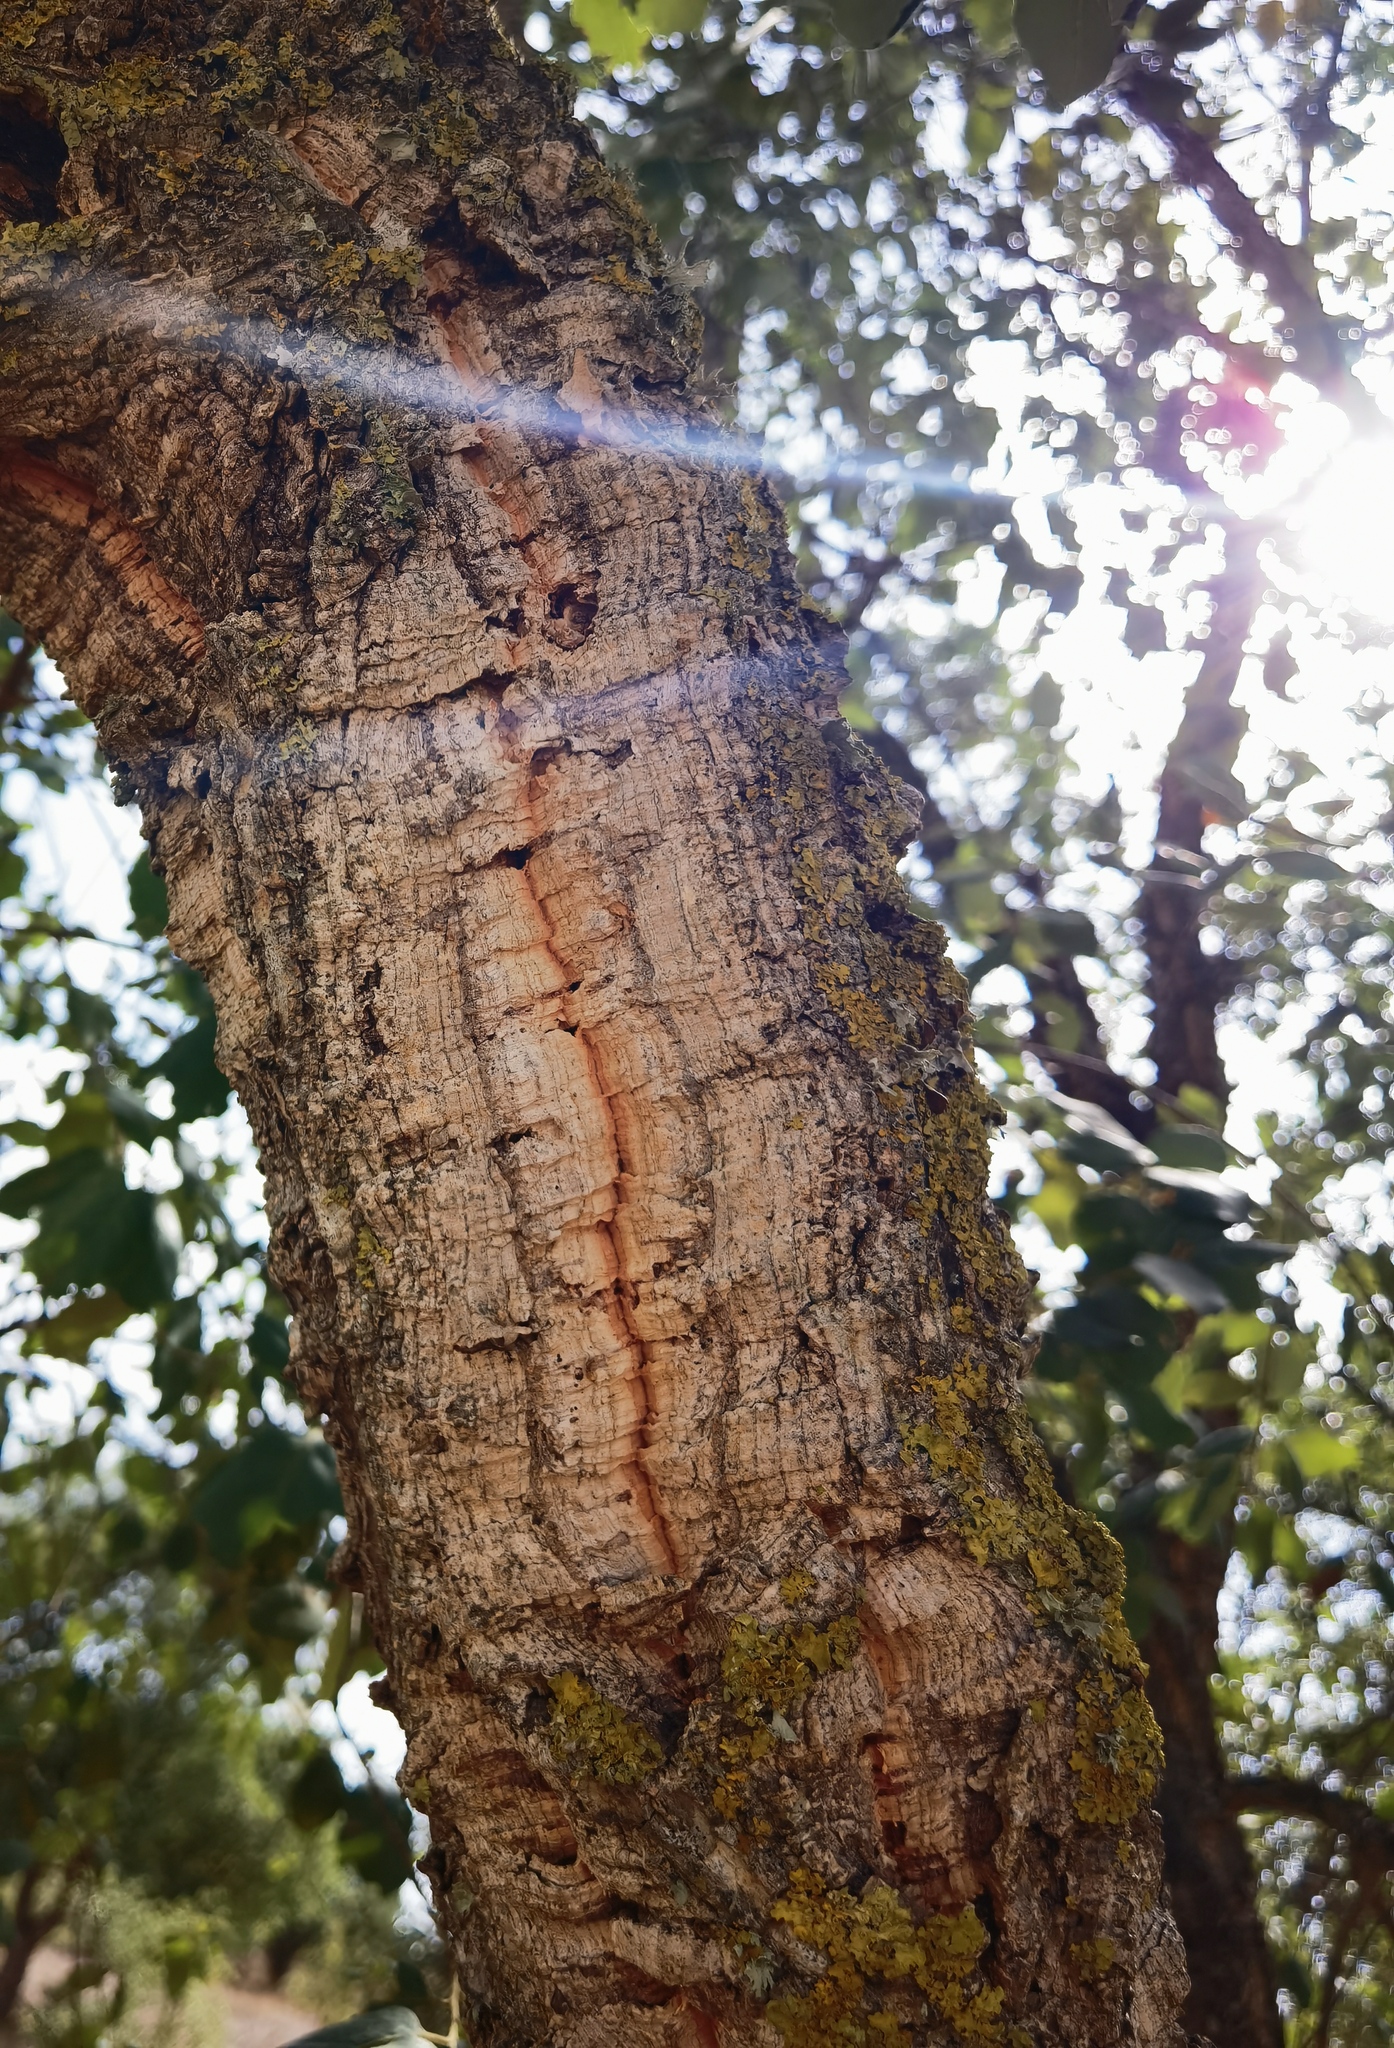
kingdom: Plantae
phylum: Tracheophyta
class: Magnoliopsida
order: Fagales
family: Fagaceae
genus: Quercus
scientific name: Quercus suber
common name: Cork oak
